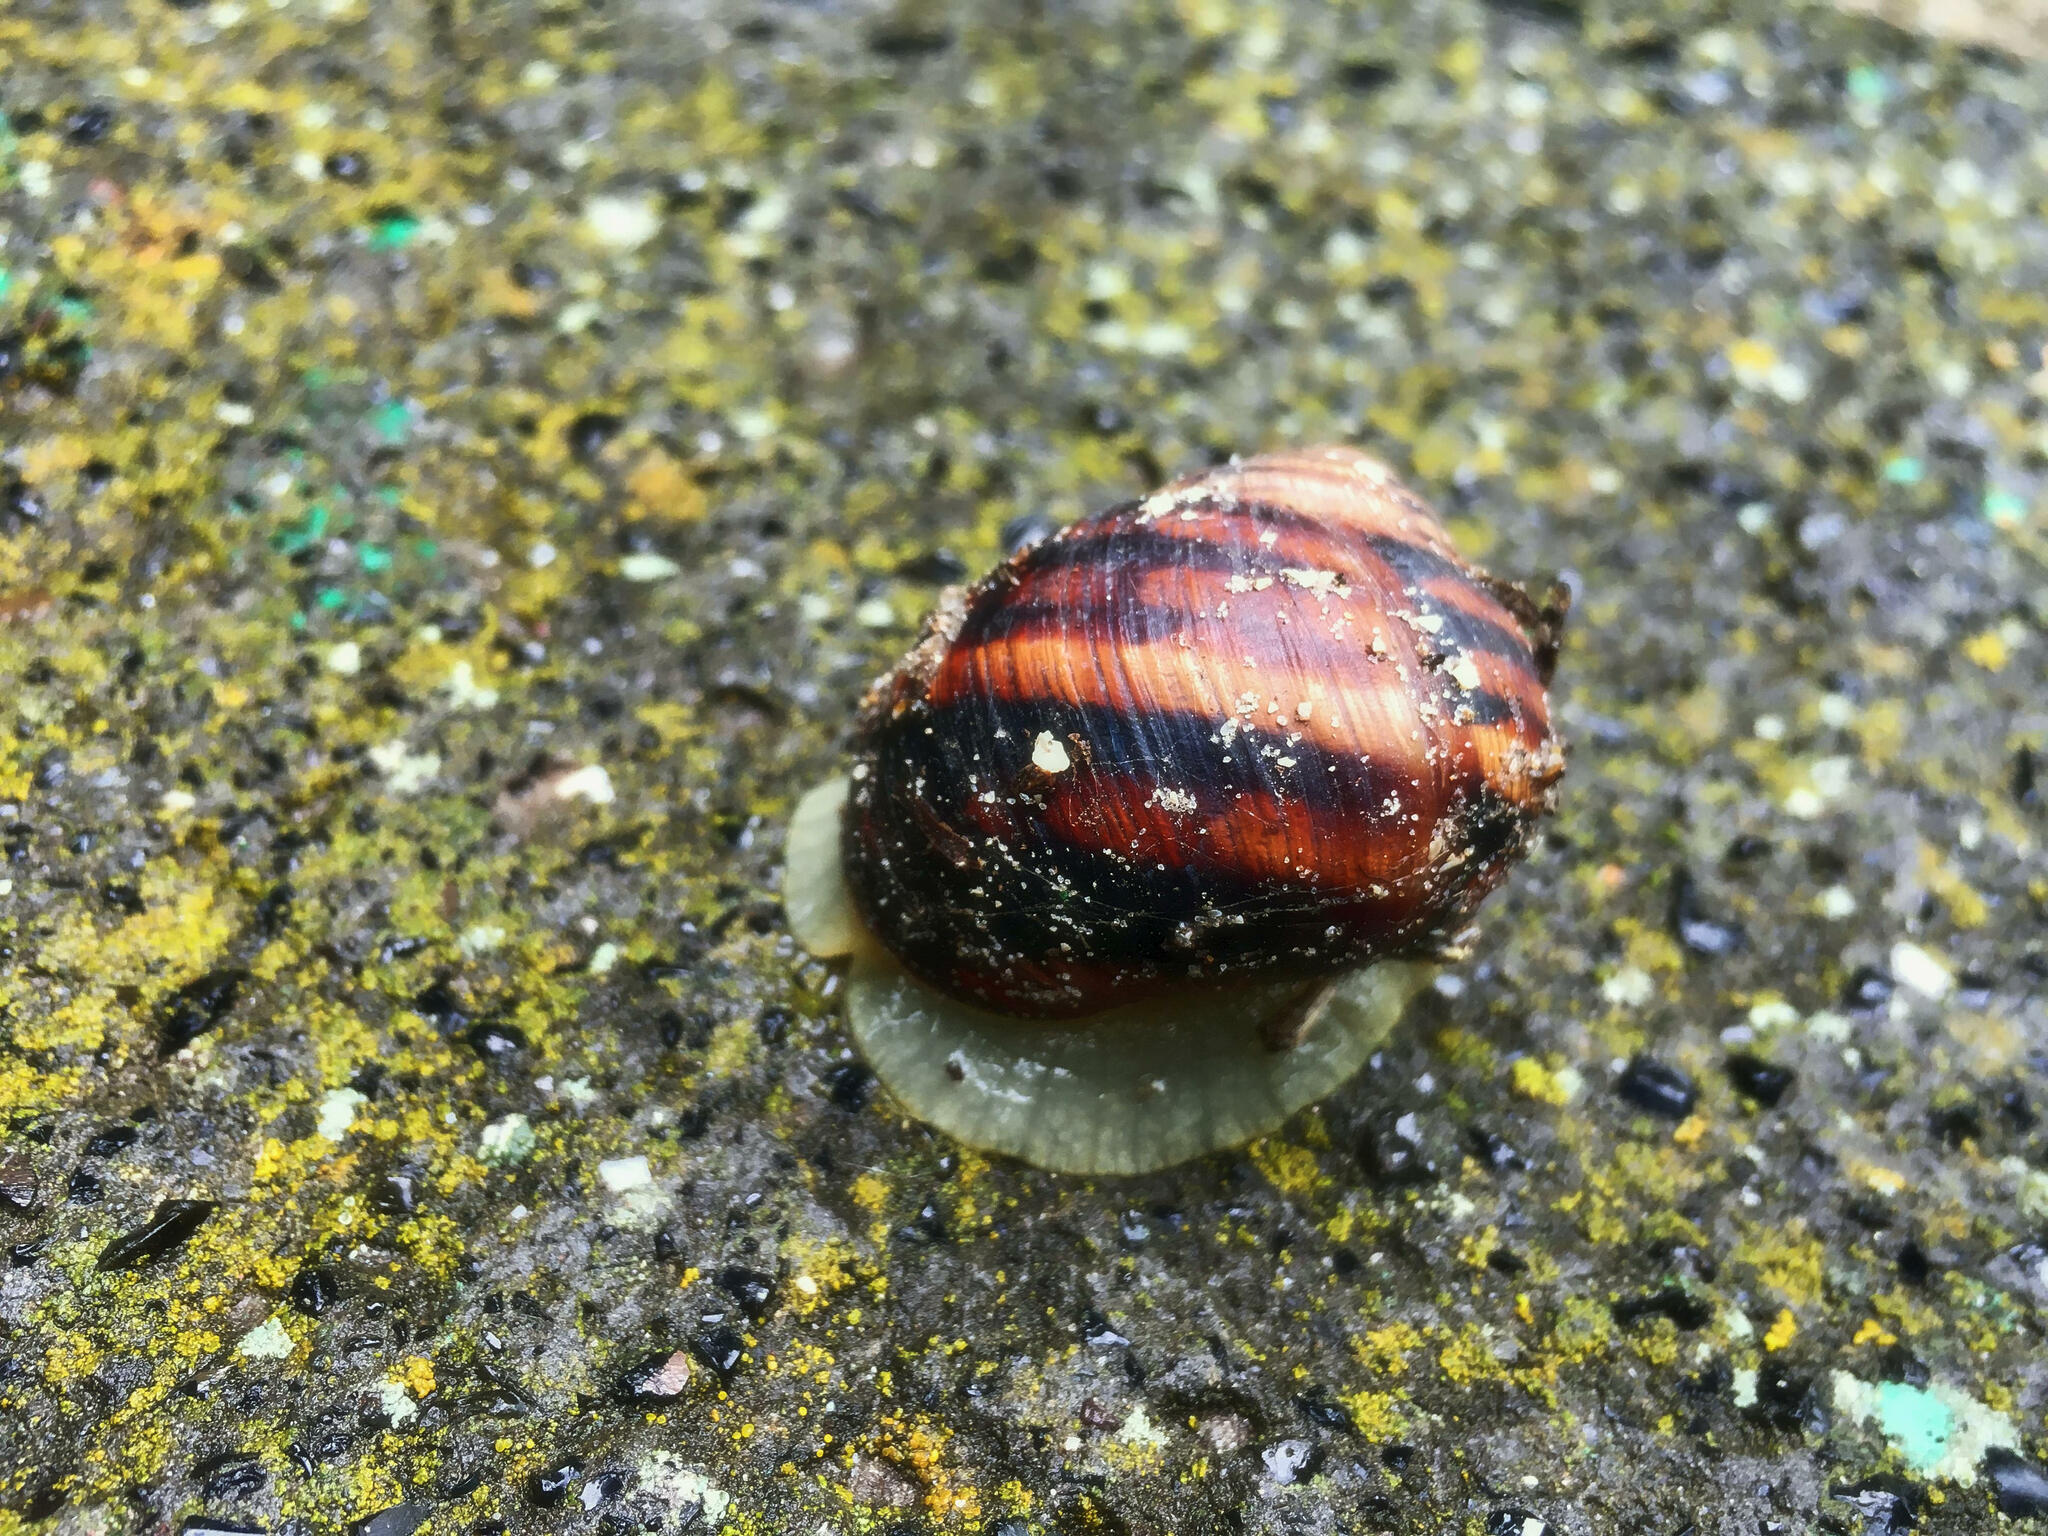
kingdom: Animalia
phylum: Mollusca
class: Gastropoda
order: Stylommatophora
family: Helicidae
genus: Helix
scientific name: Helix albescens
